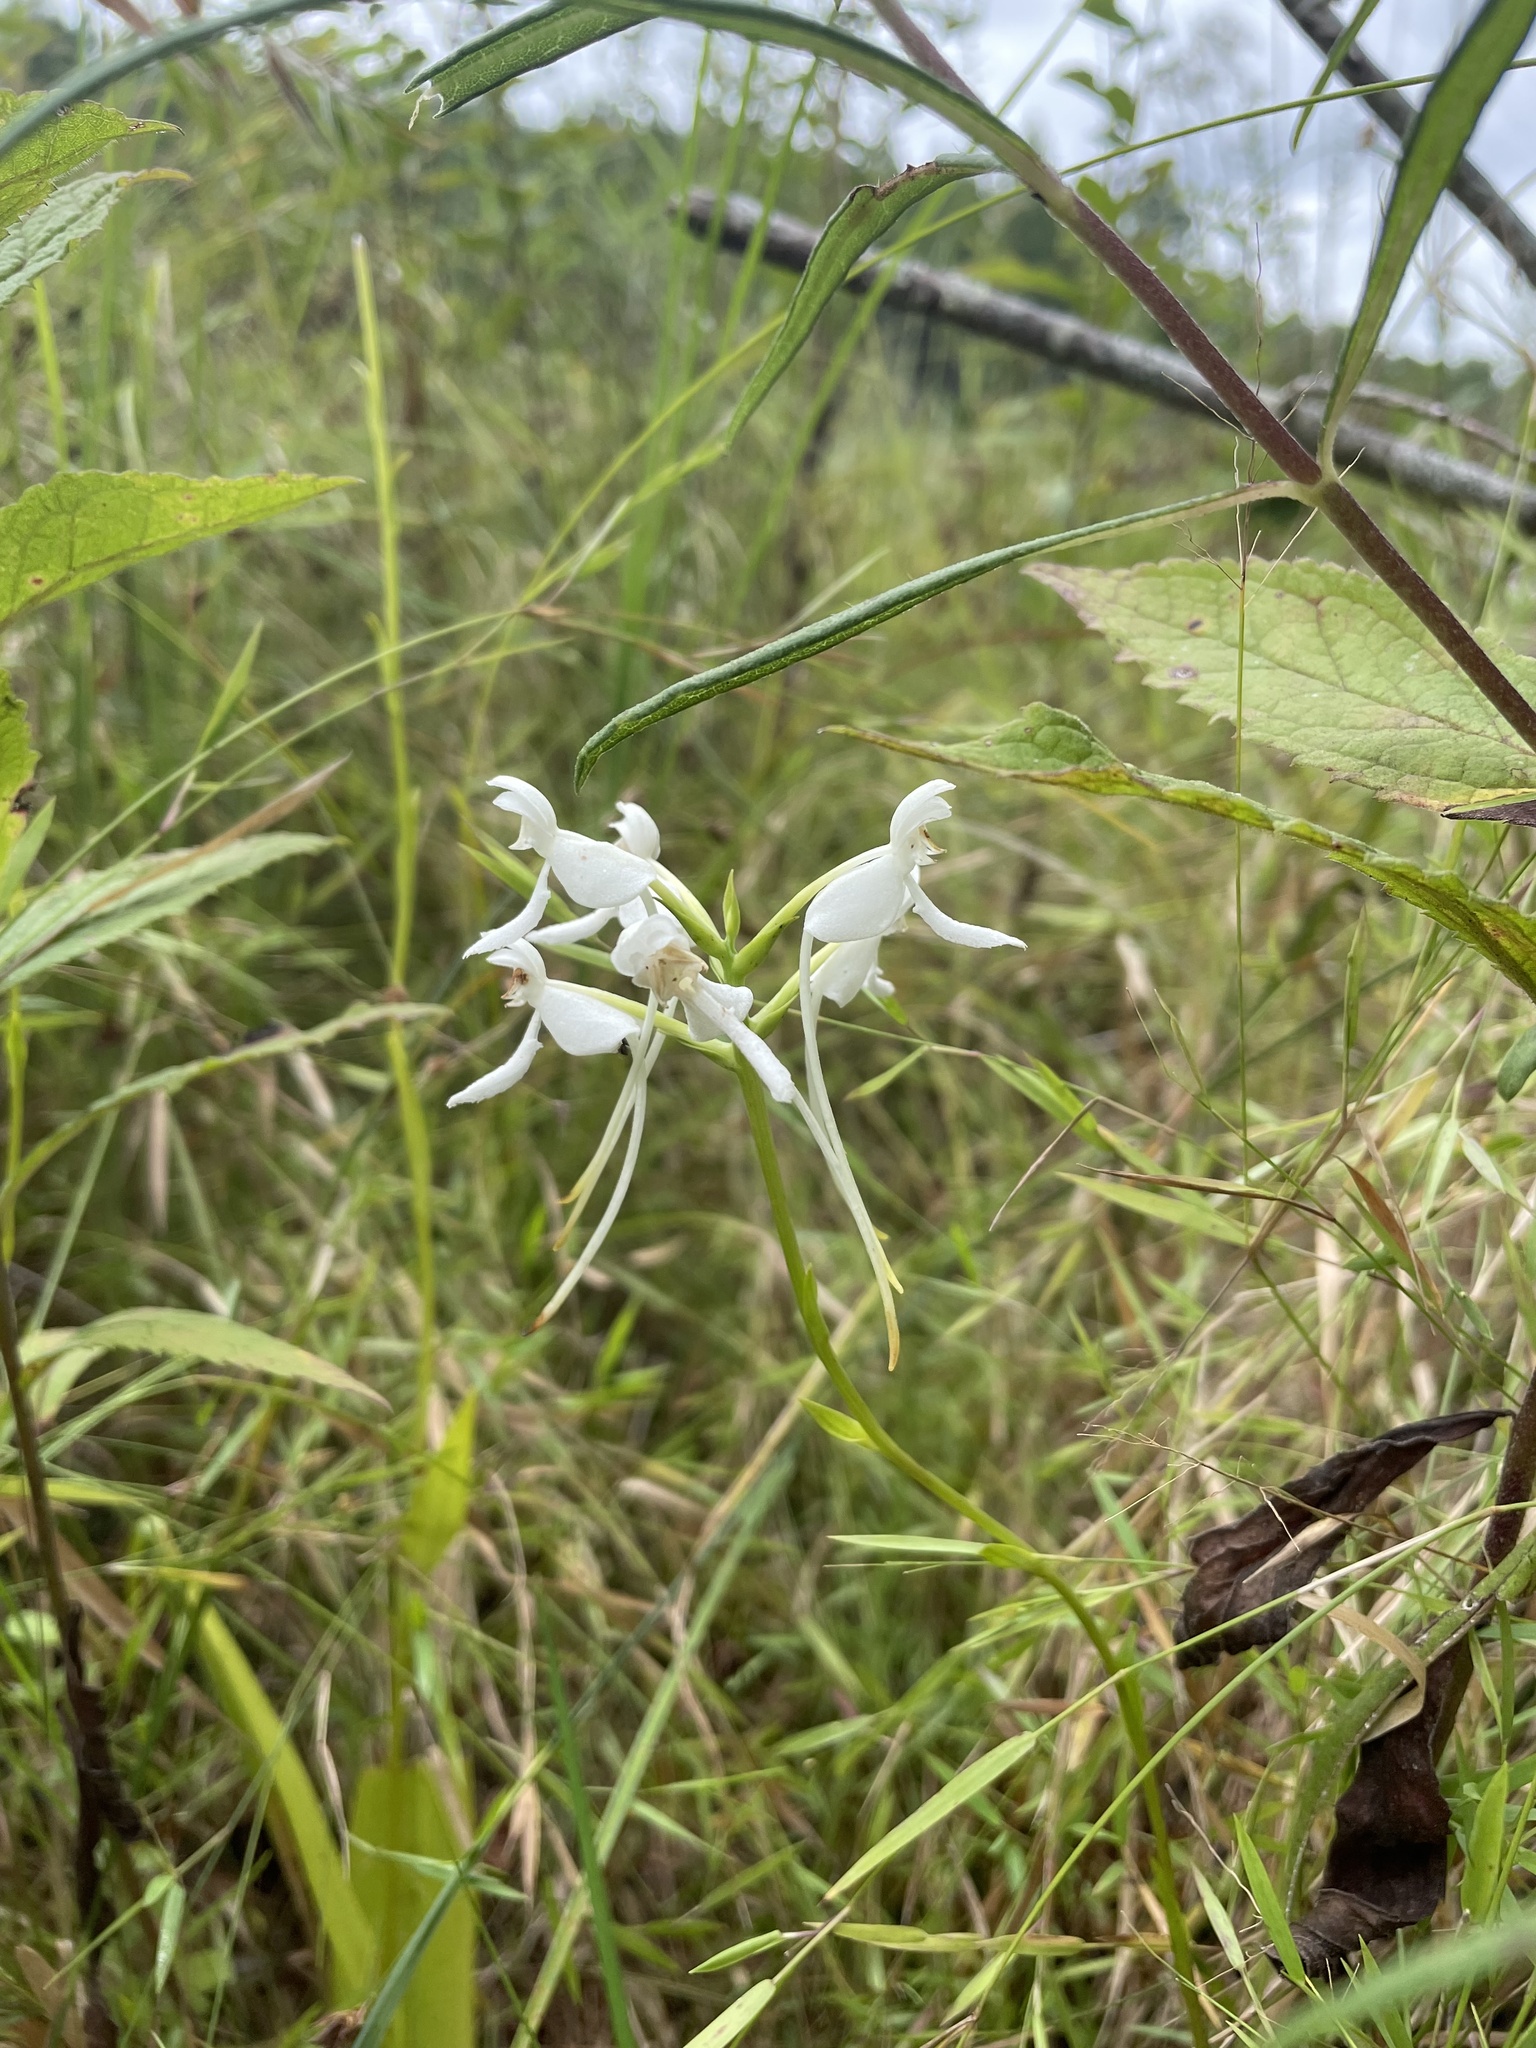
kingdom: Plantae
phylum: Tracheophyta
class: Liliopsida
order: Asparagales
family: Orchidaceae
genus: Platanthera
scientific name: Platanthera integrilabia
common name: White fringeless orchid
